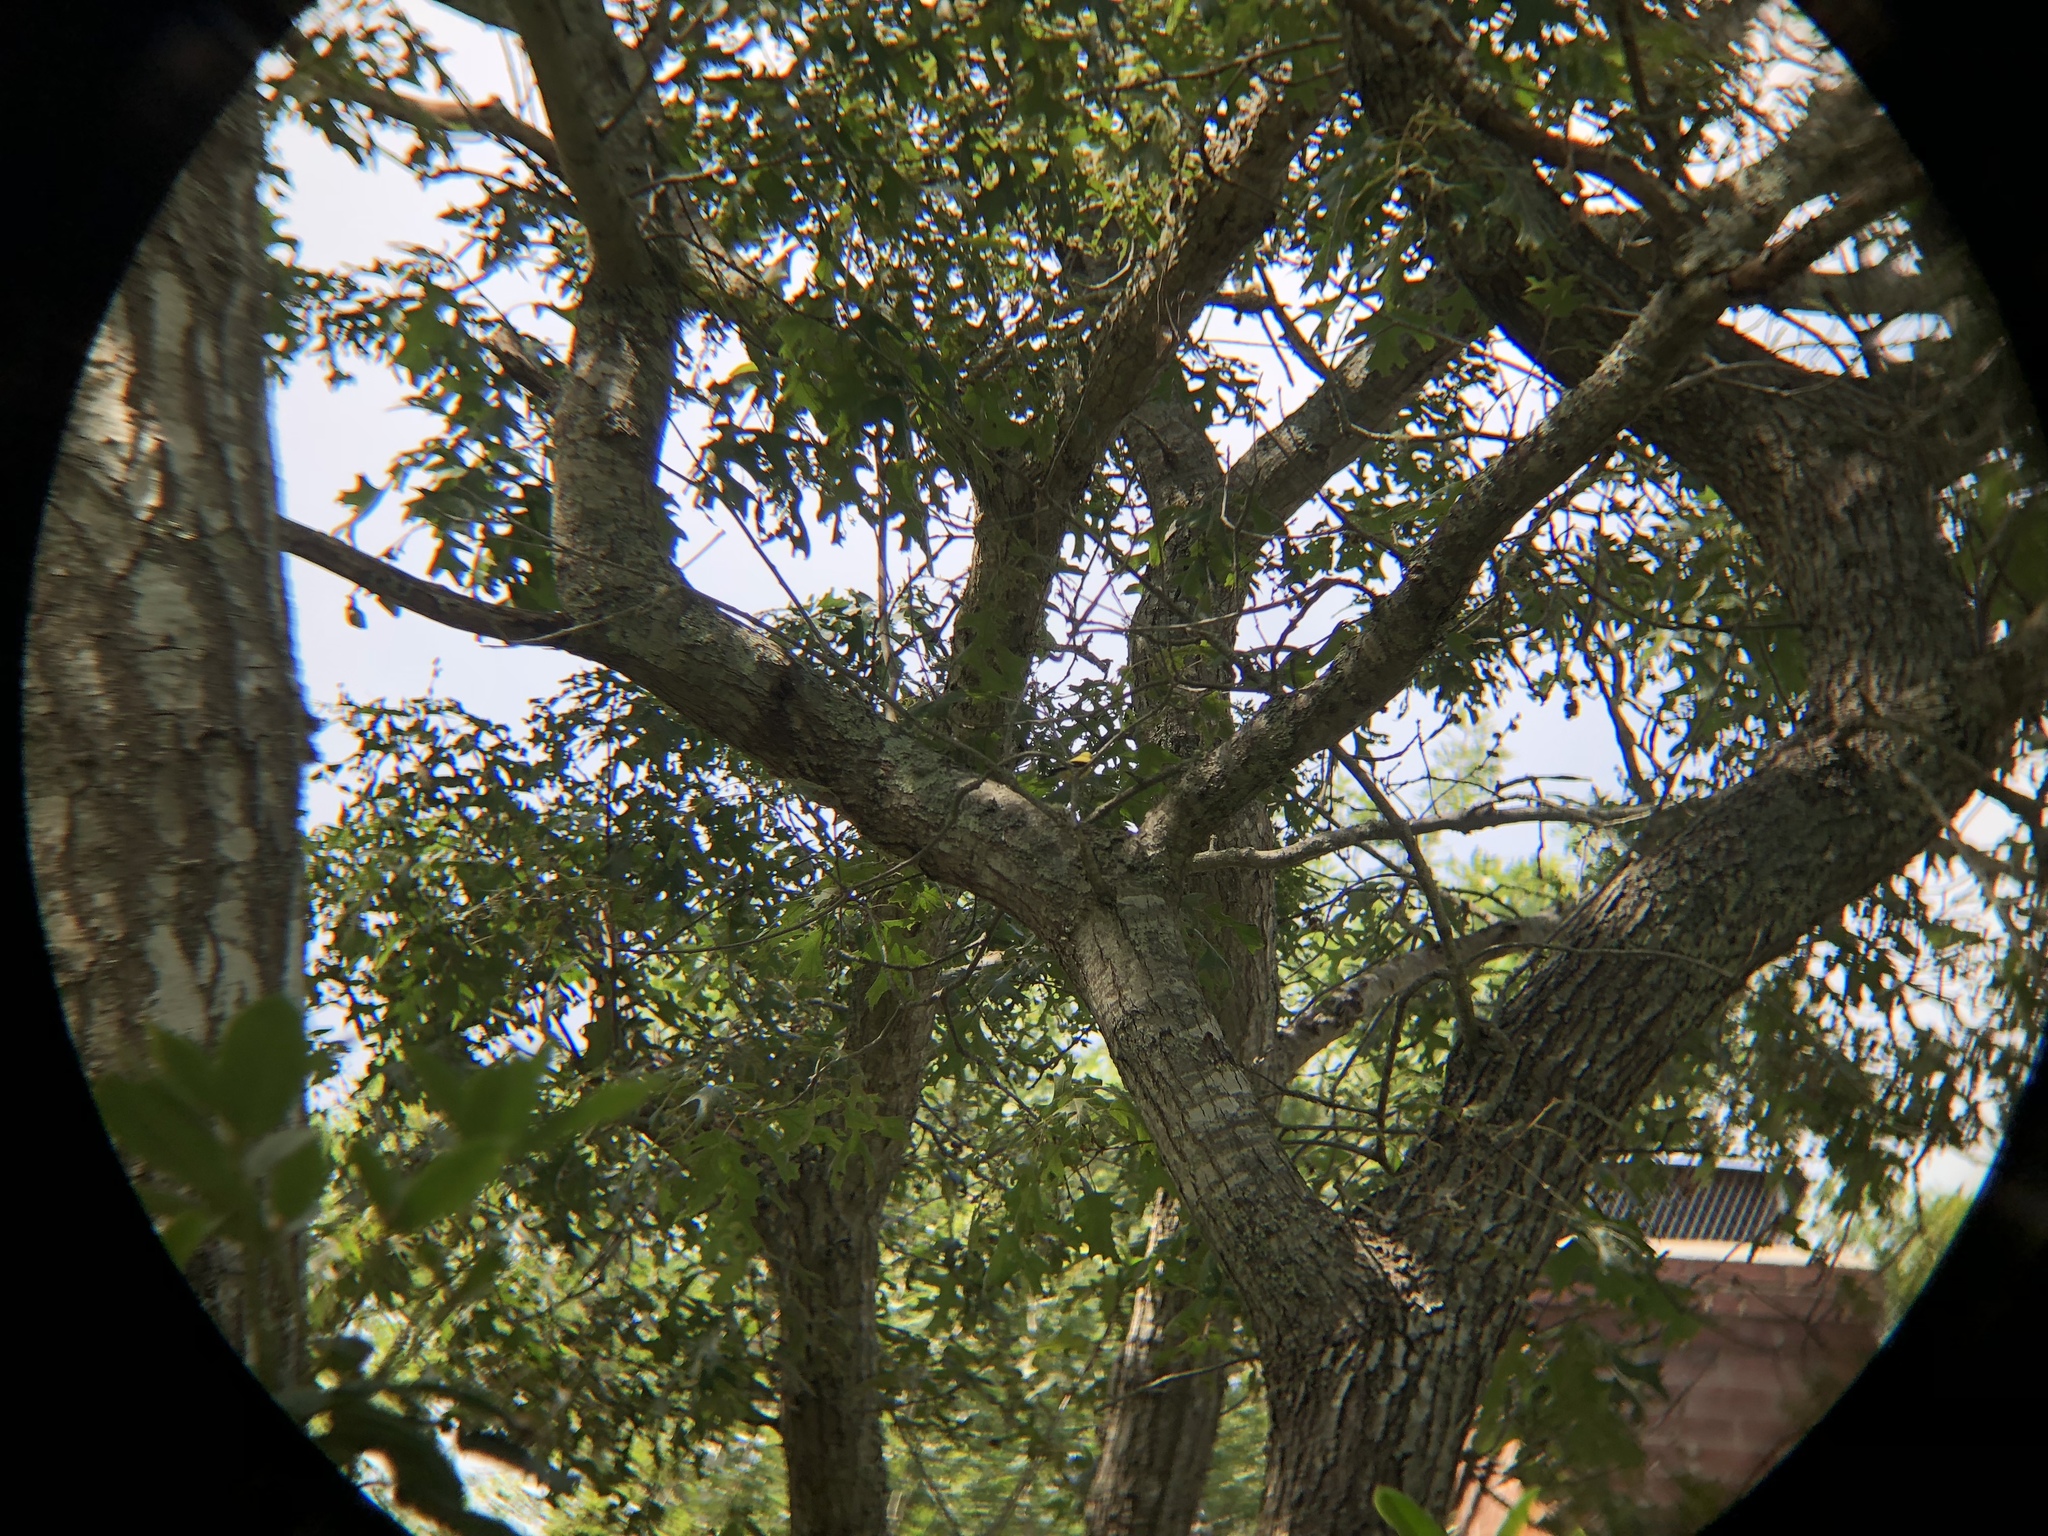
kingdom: Animalia
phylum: Chordata
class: Aves
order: Passeriformes
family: Fringillidae
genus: Spinus
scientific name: Spinus tristis
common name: American goldfinch
